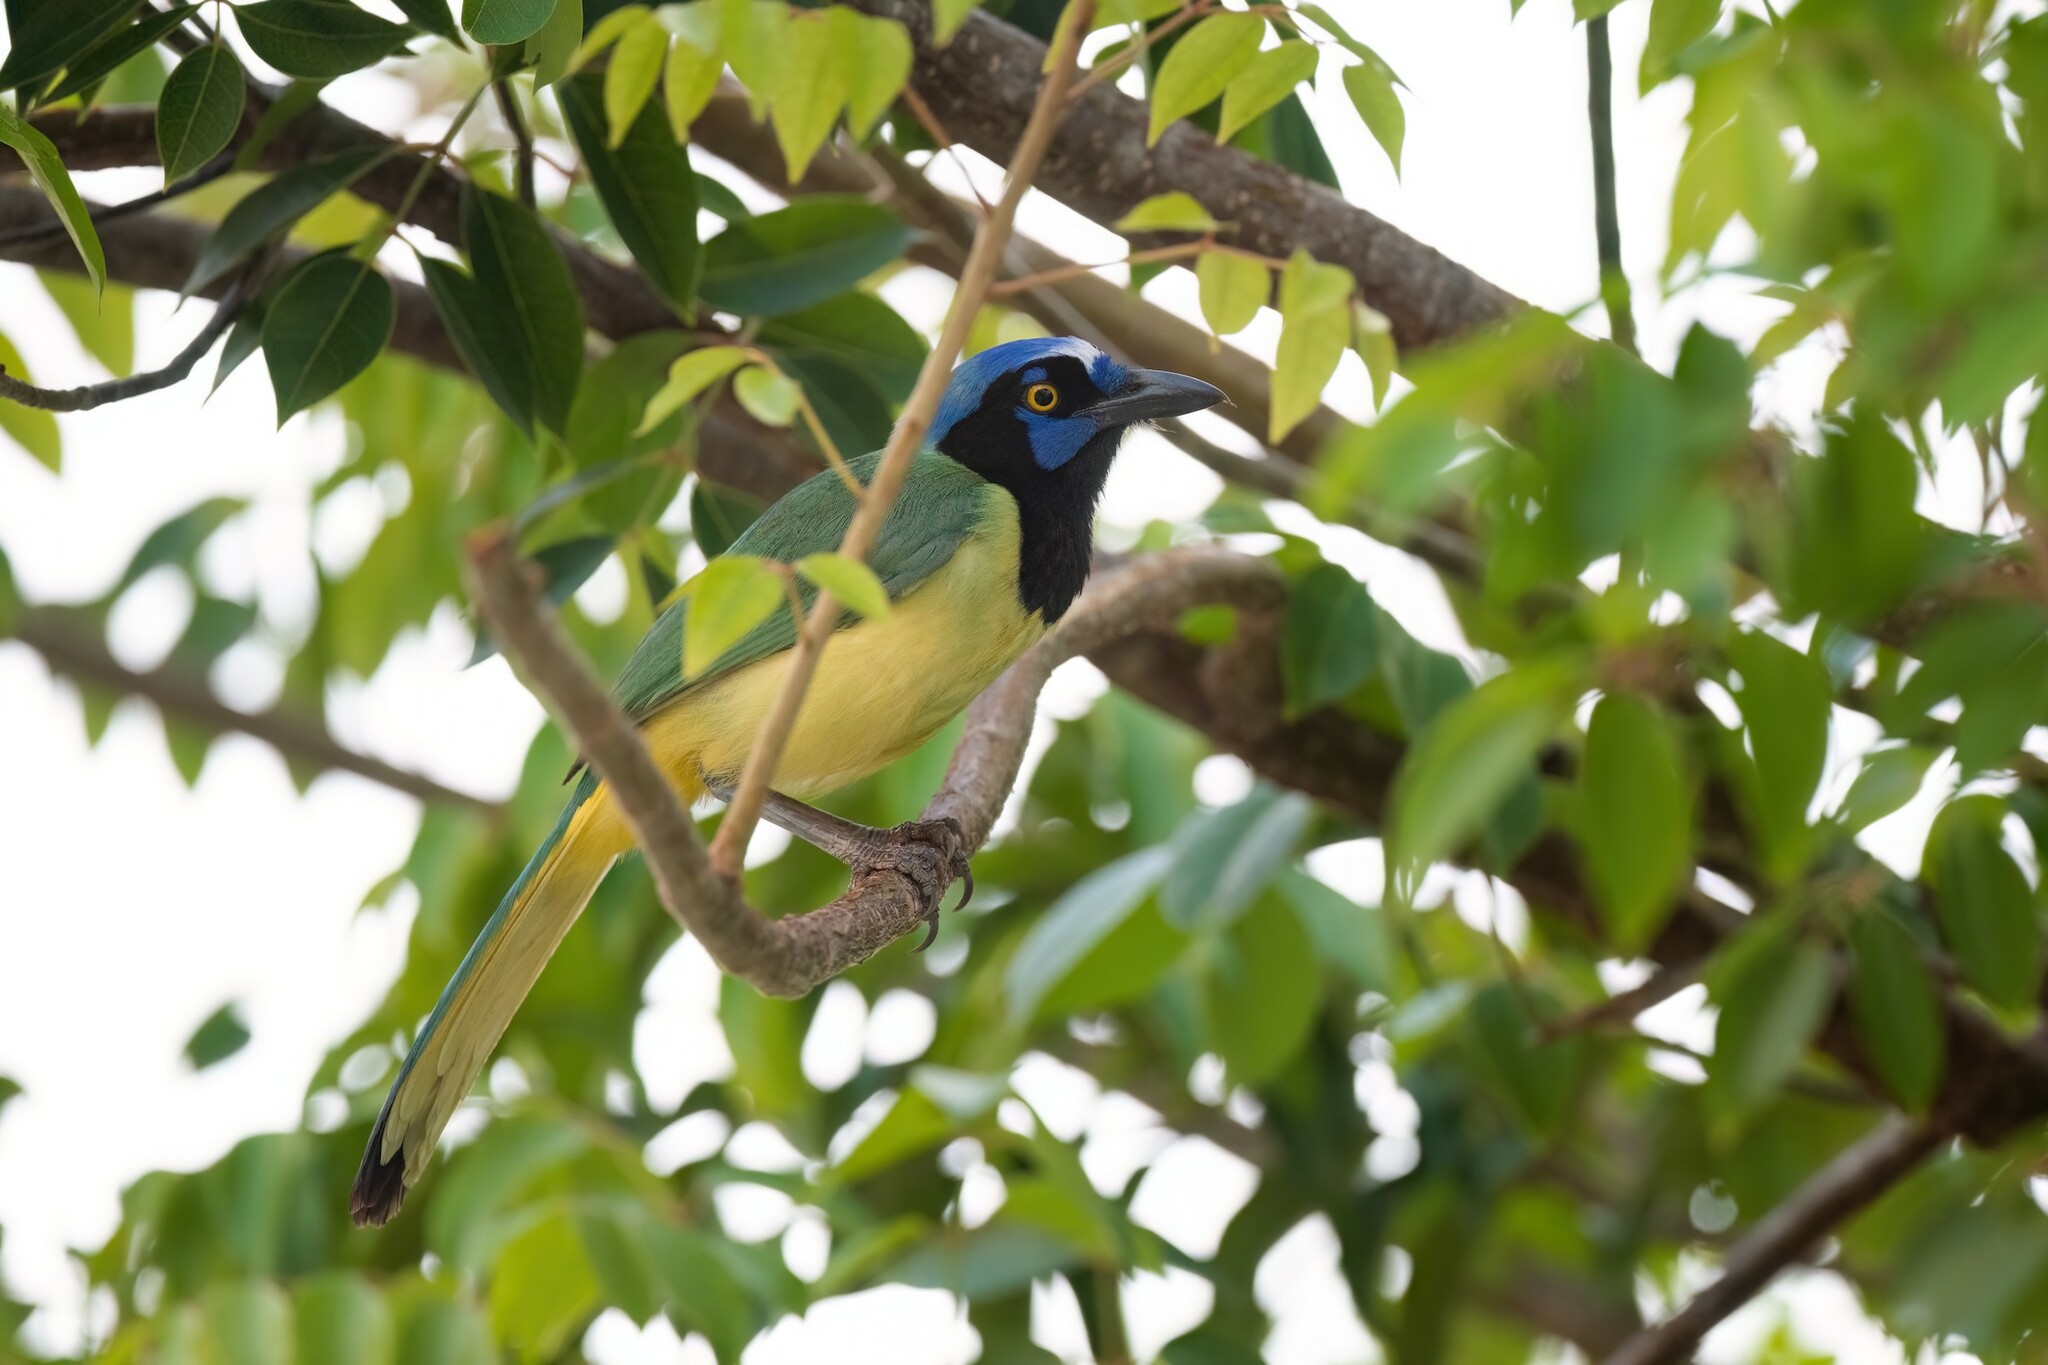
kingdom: Animalia
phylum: Chordata
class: Aves
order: Passeriformes
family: Corvidae
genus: Cyanocorax
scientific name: Cyanocorax yncas
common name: Green jay
